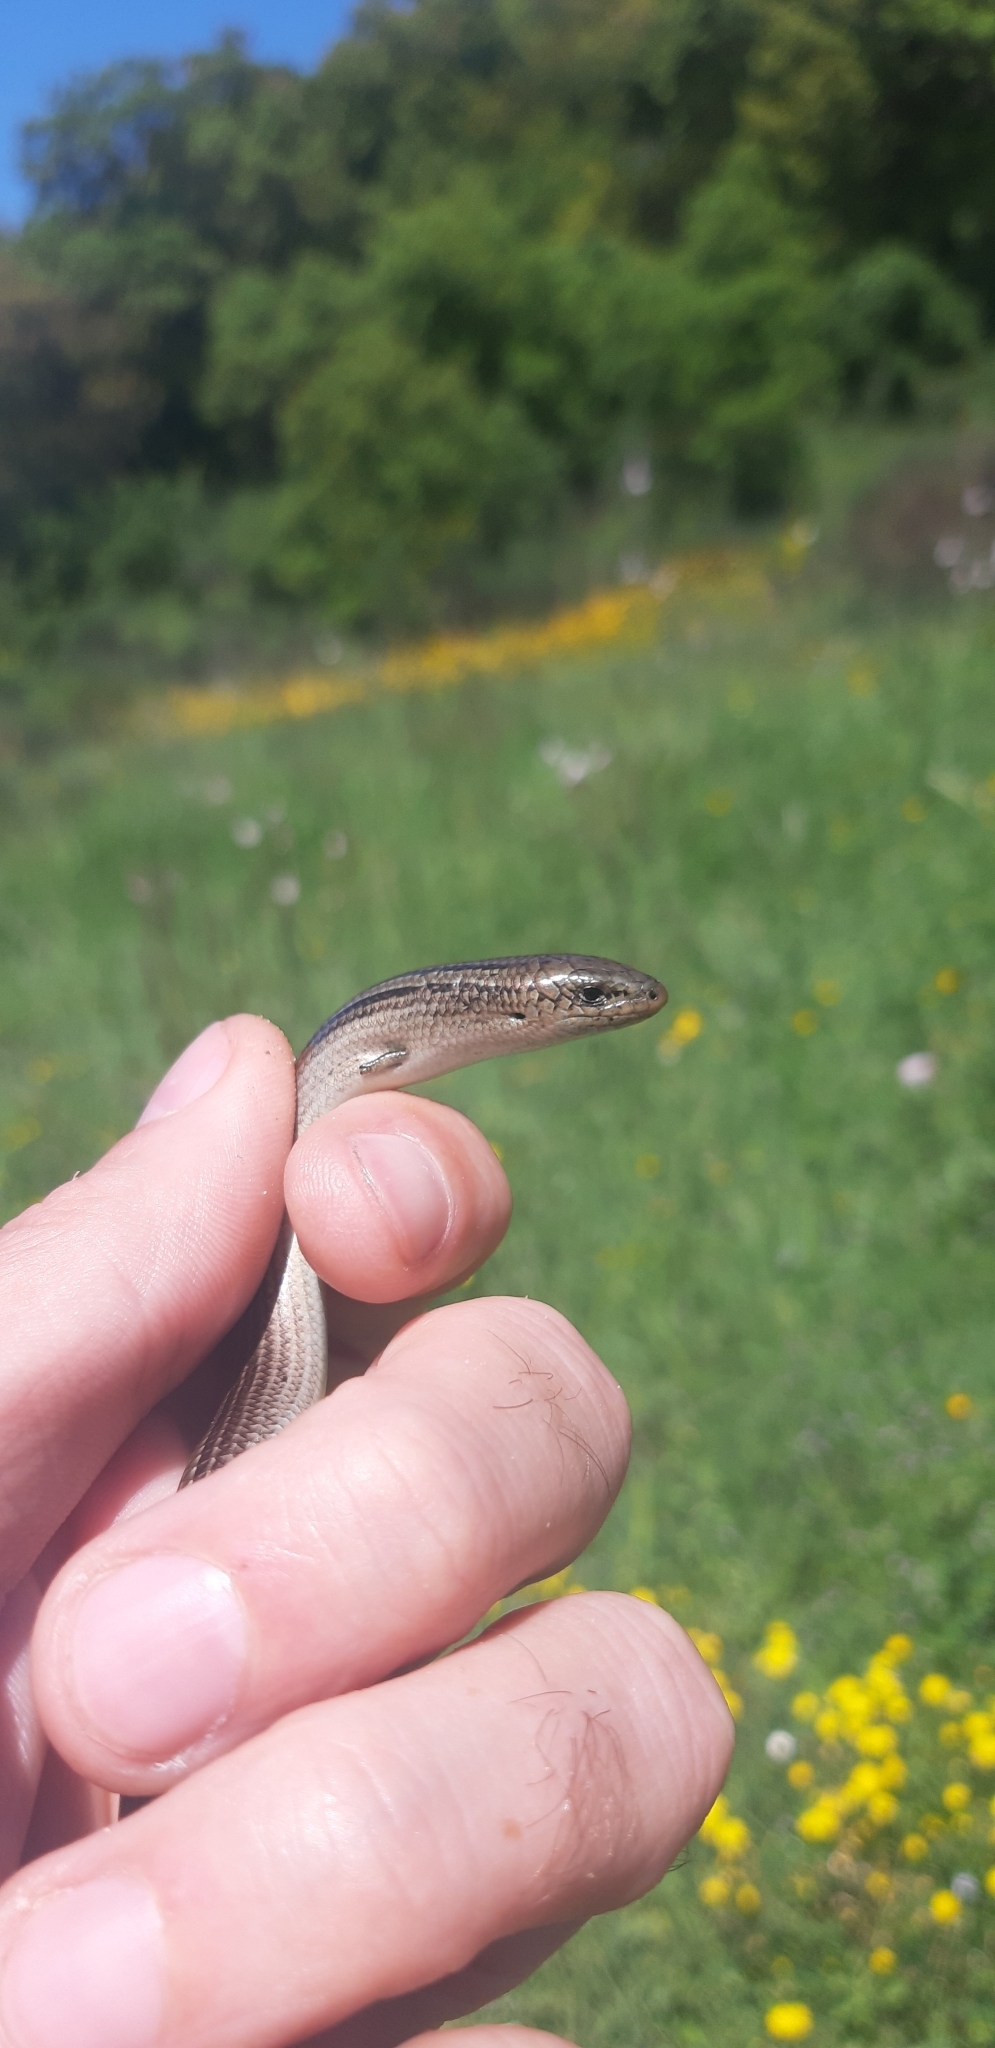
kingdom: Animalia
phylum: Chordata
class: Squamata
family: Scincidae
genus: Chalcides
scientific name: Chalcides chalcides
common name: Italian three-toed skink
